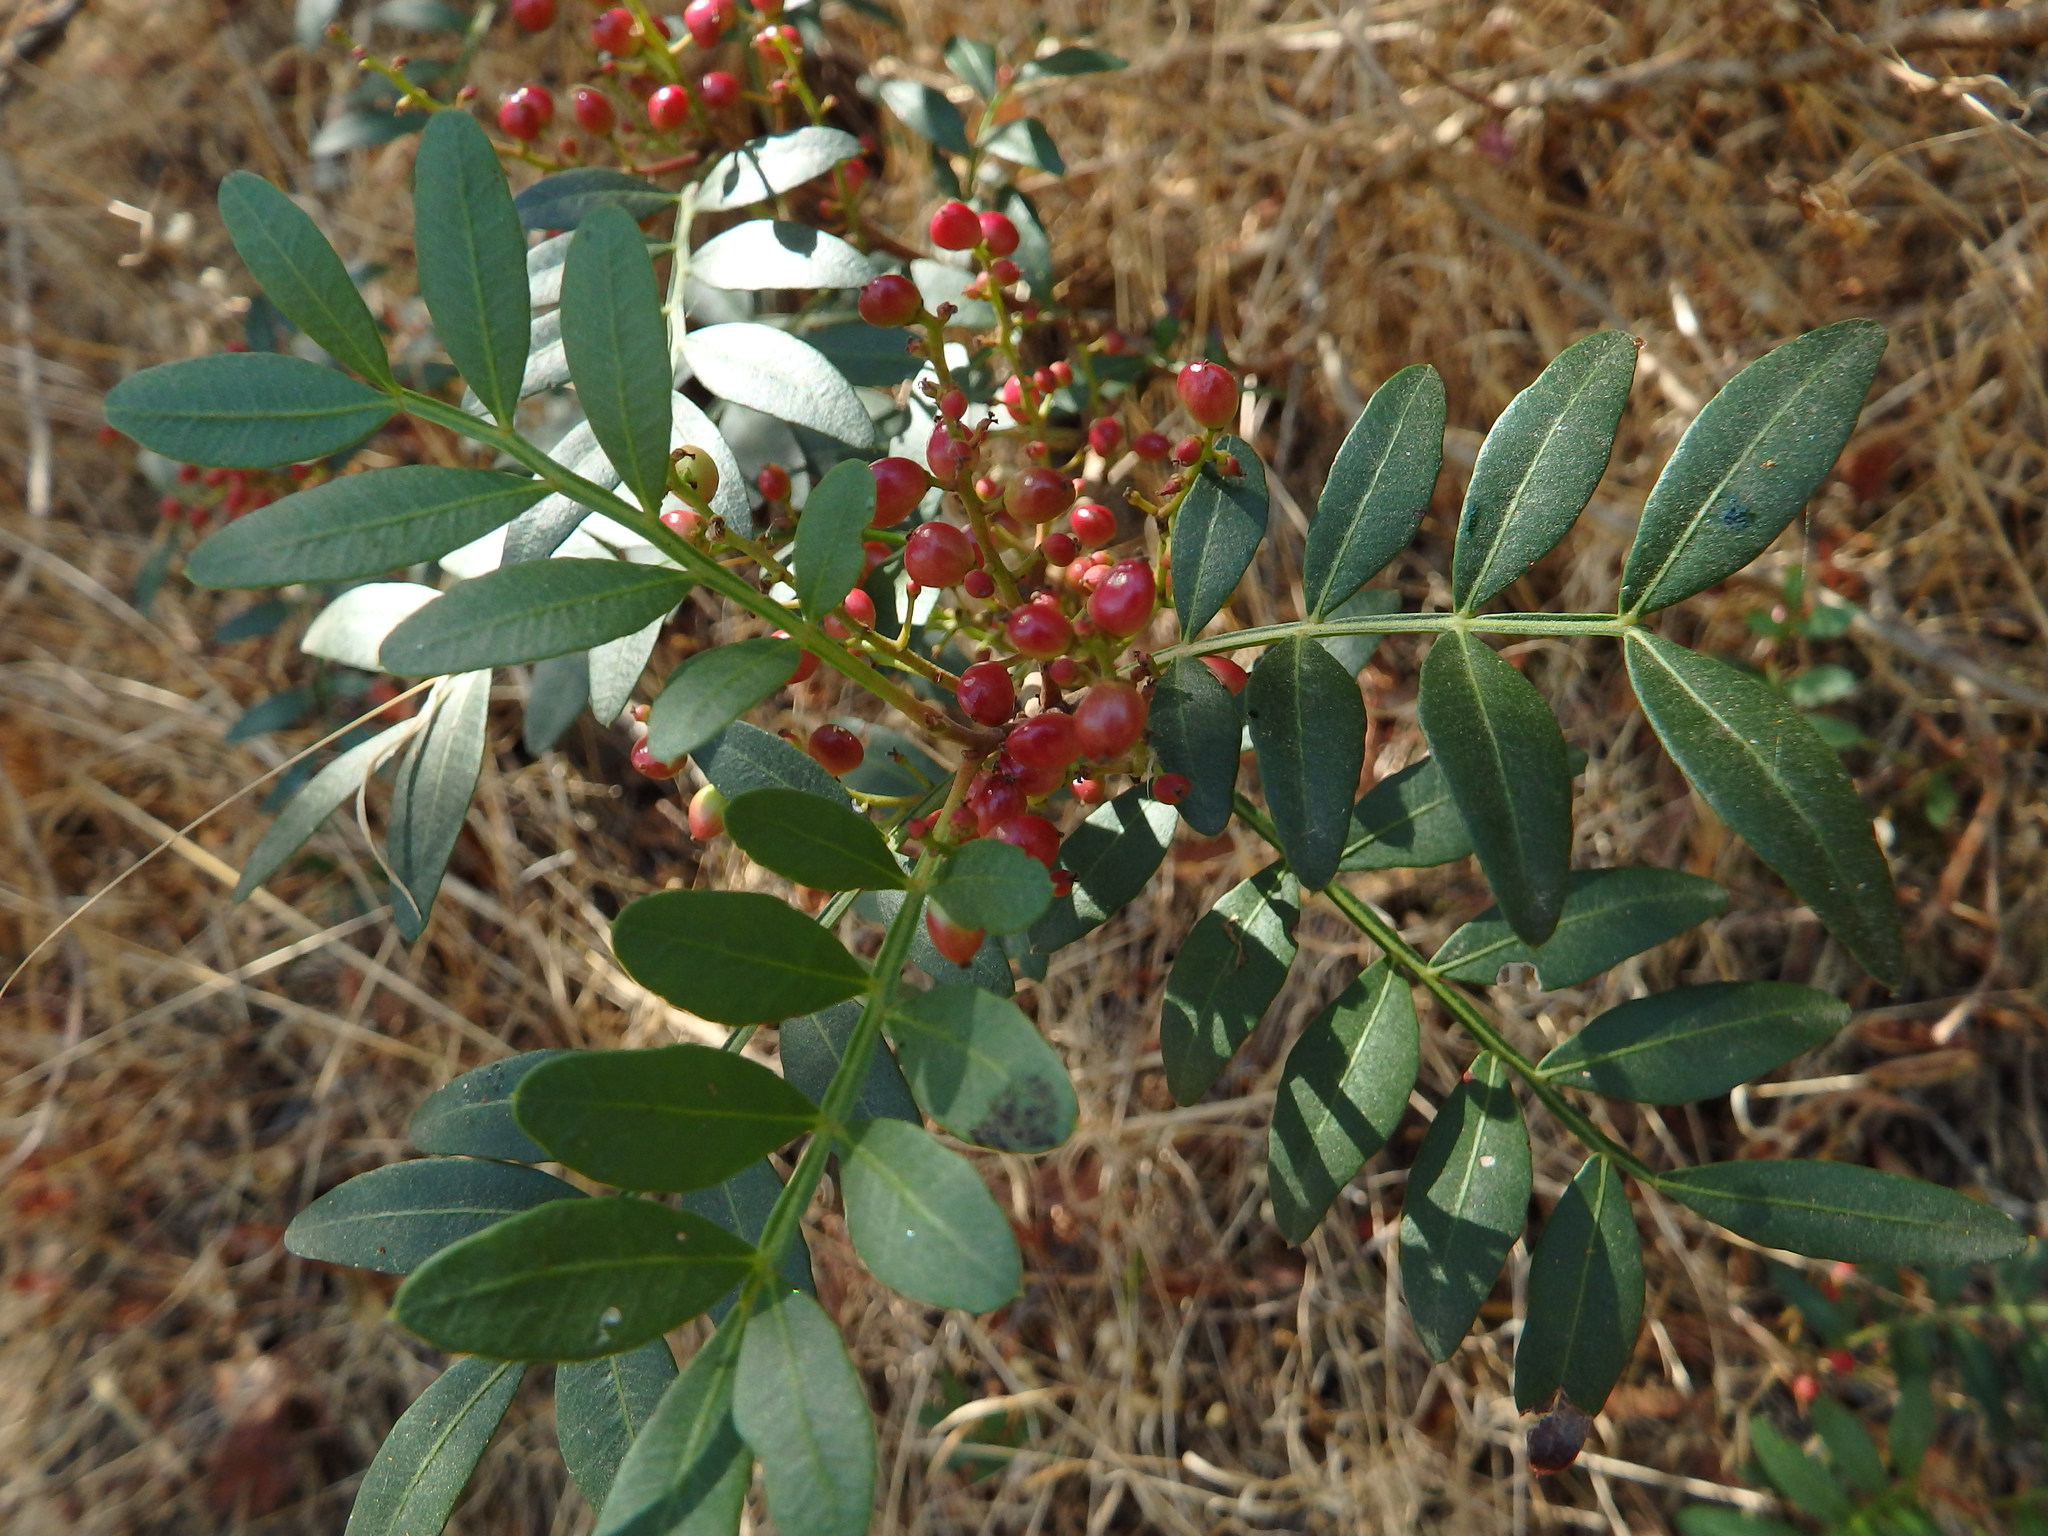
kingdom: Plantae
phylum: Tracheophyta
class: Magnoliopsida
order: Sapindales
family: Anacardiaceae
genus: Pistacia
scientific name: Pistacia lentiscus
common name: Lentisk
